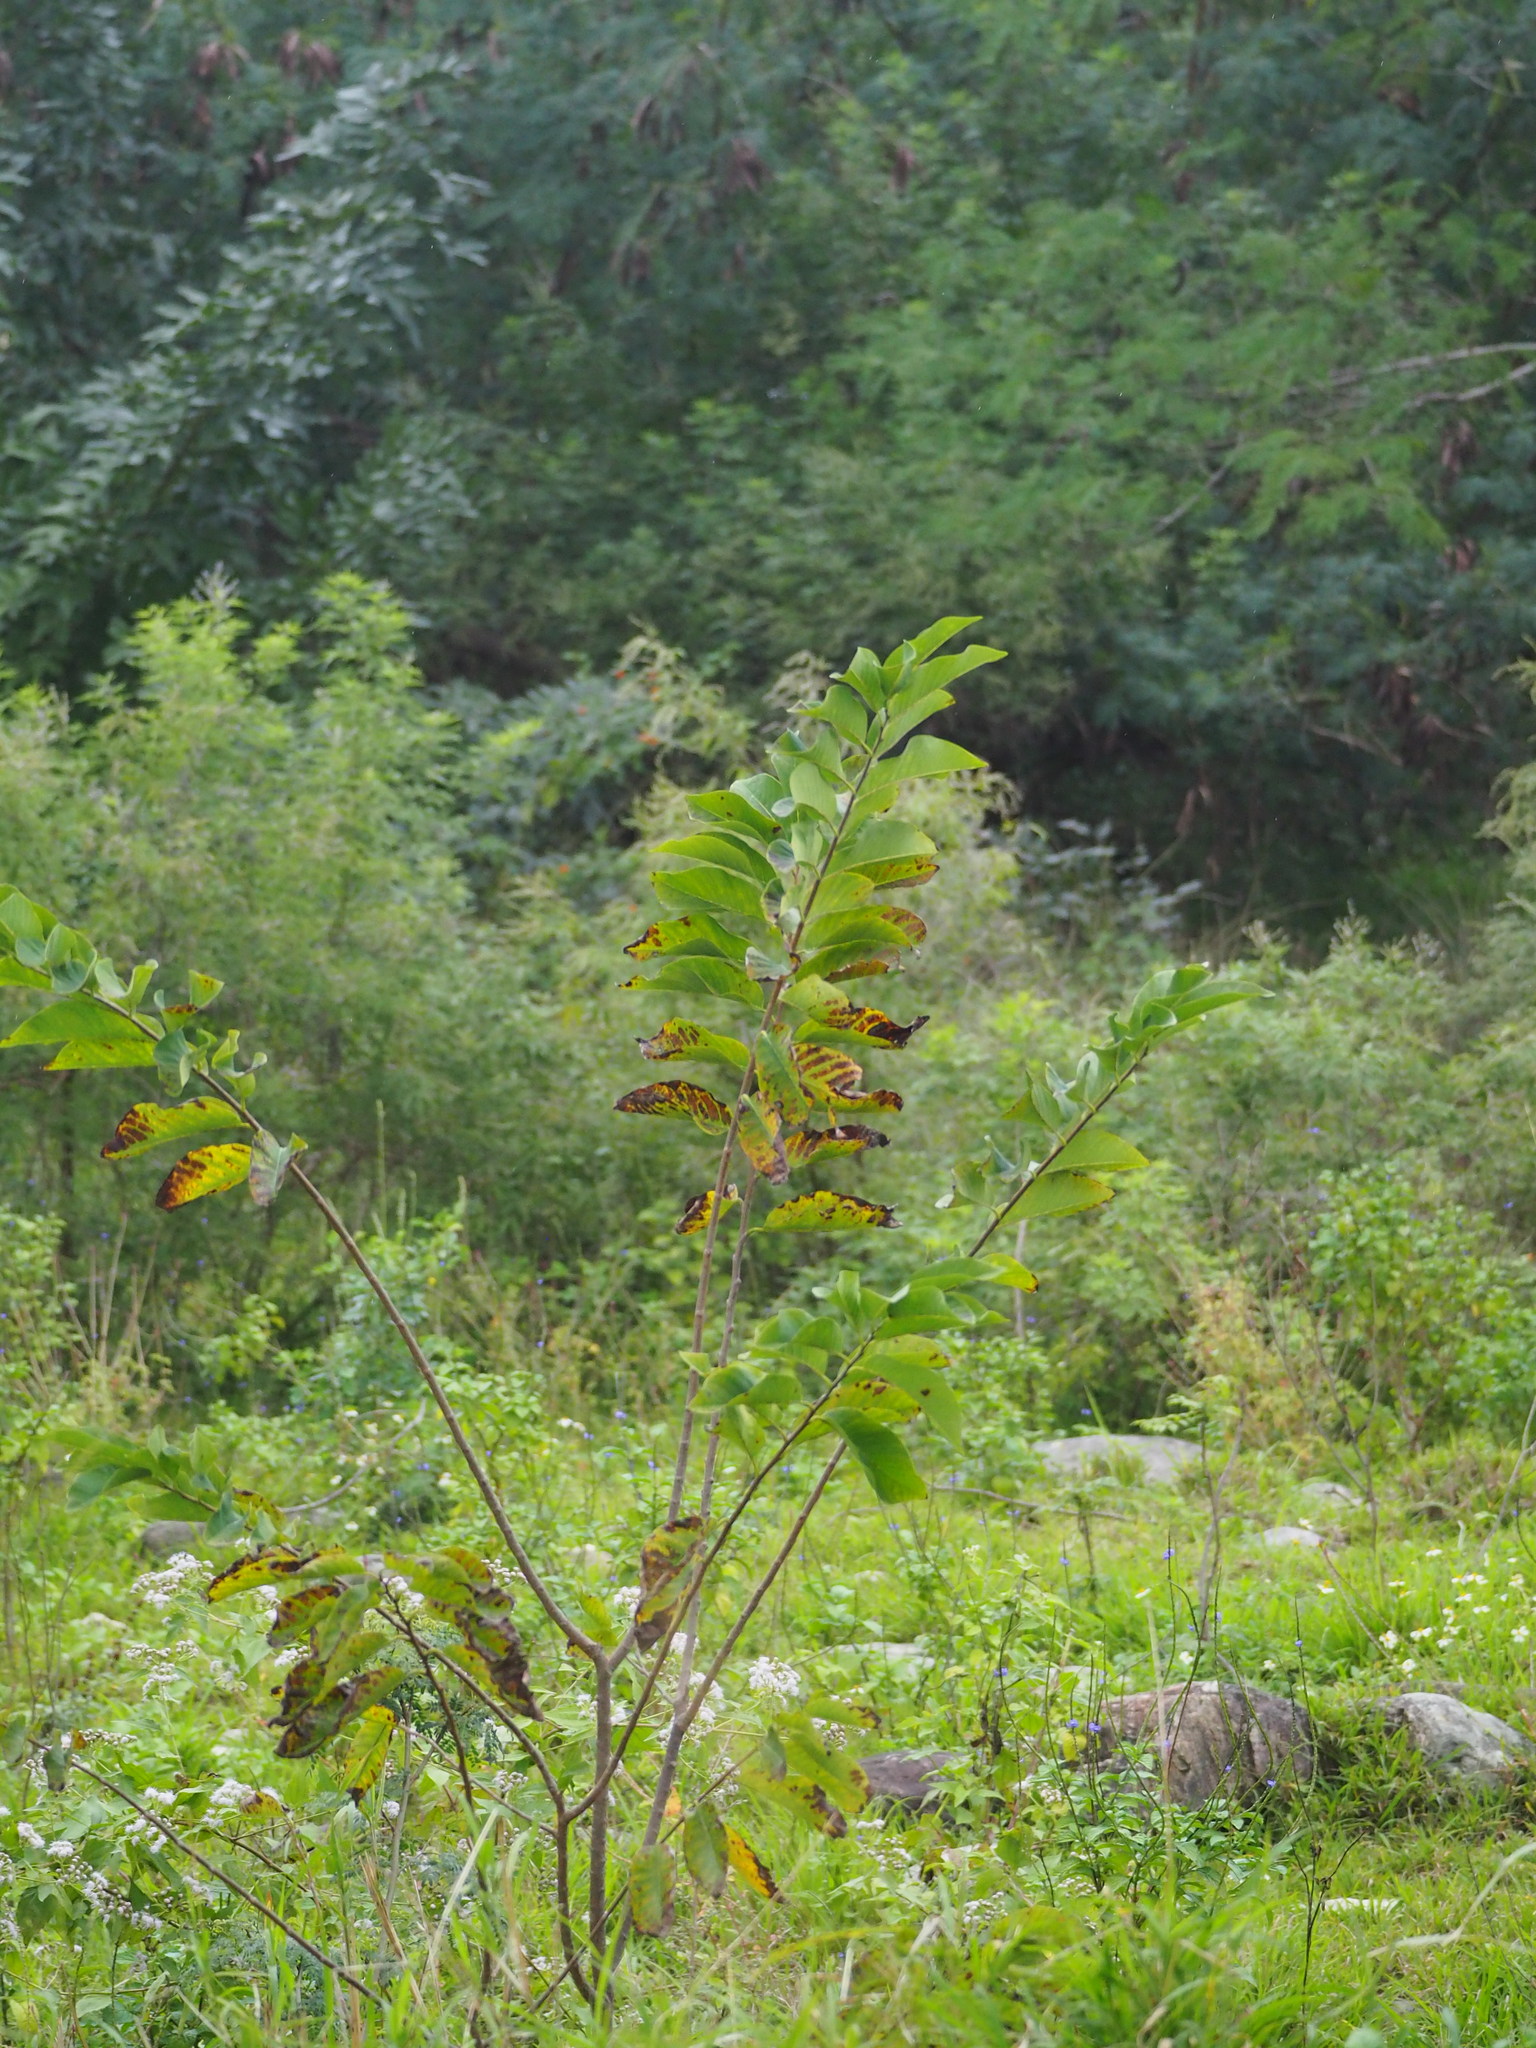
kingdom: Plantae
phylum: Tracheophyta
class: Magnoliopsida
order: Myrtales
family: Myrtaceae
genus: Psidium
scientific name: Psidium guajava
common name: Guava
